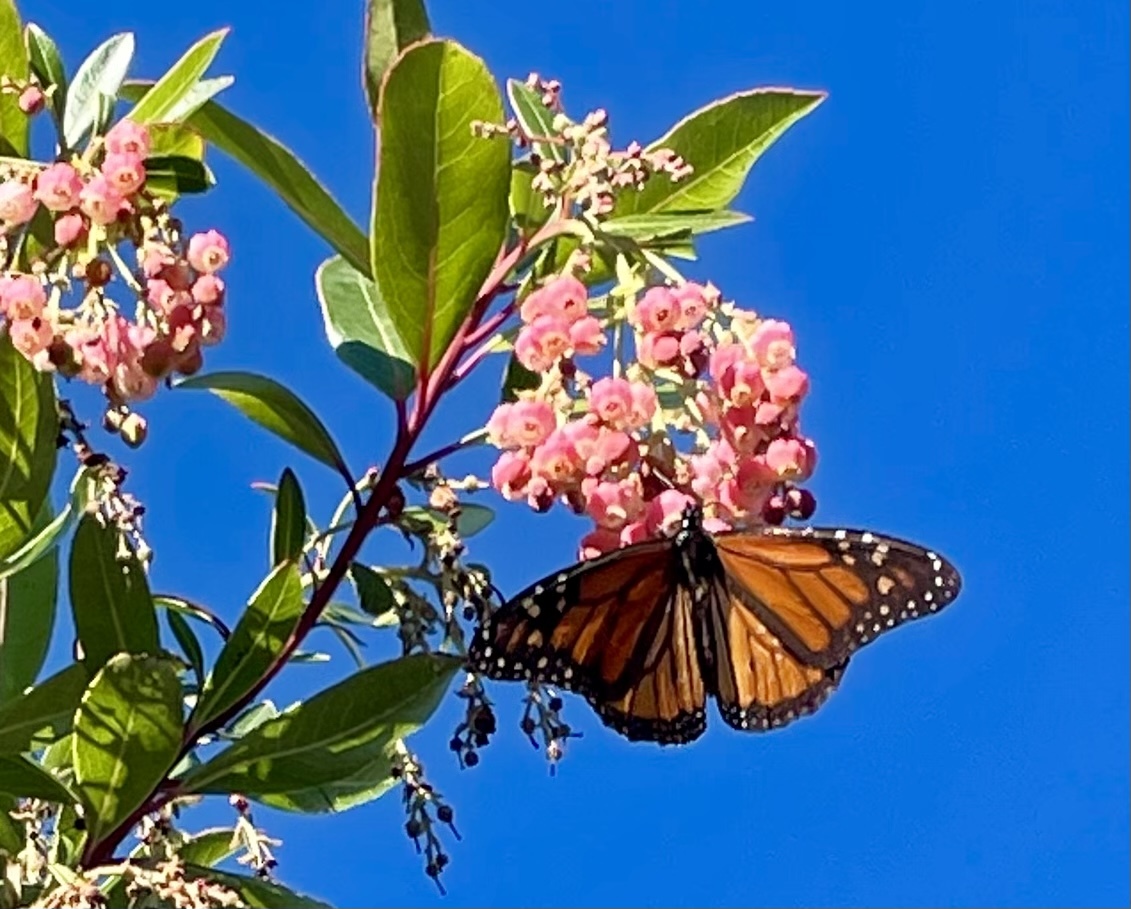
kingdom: Animalia
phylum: Arthropoda
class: Insecta
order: Lepidoptera
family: Nymphalidae
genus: Danaus
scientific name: Danaus plexippus
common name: Monarch
